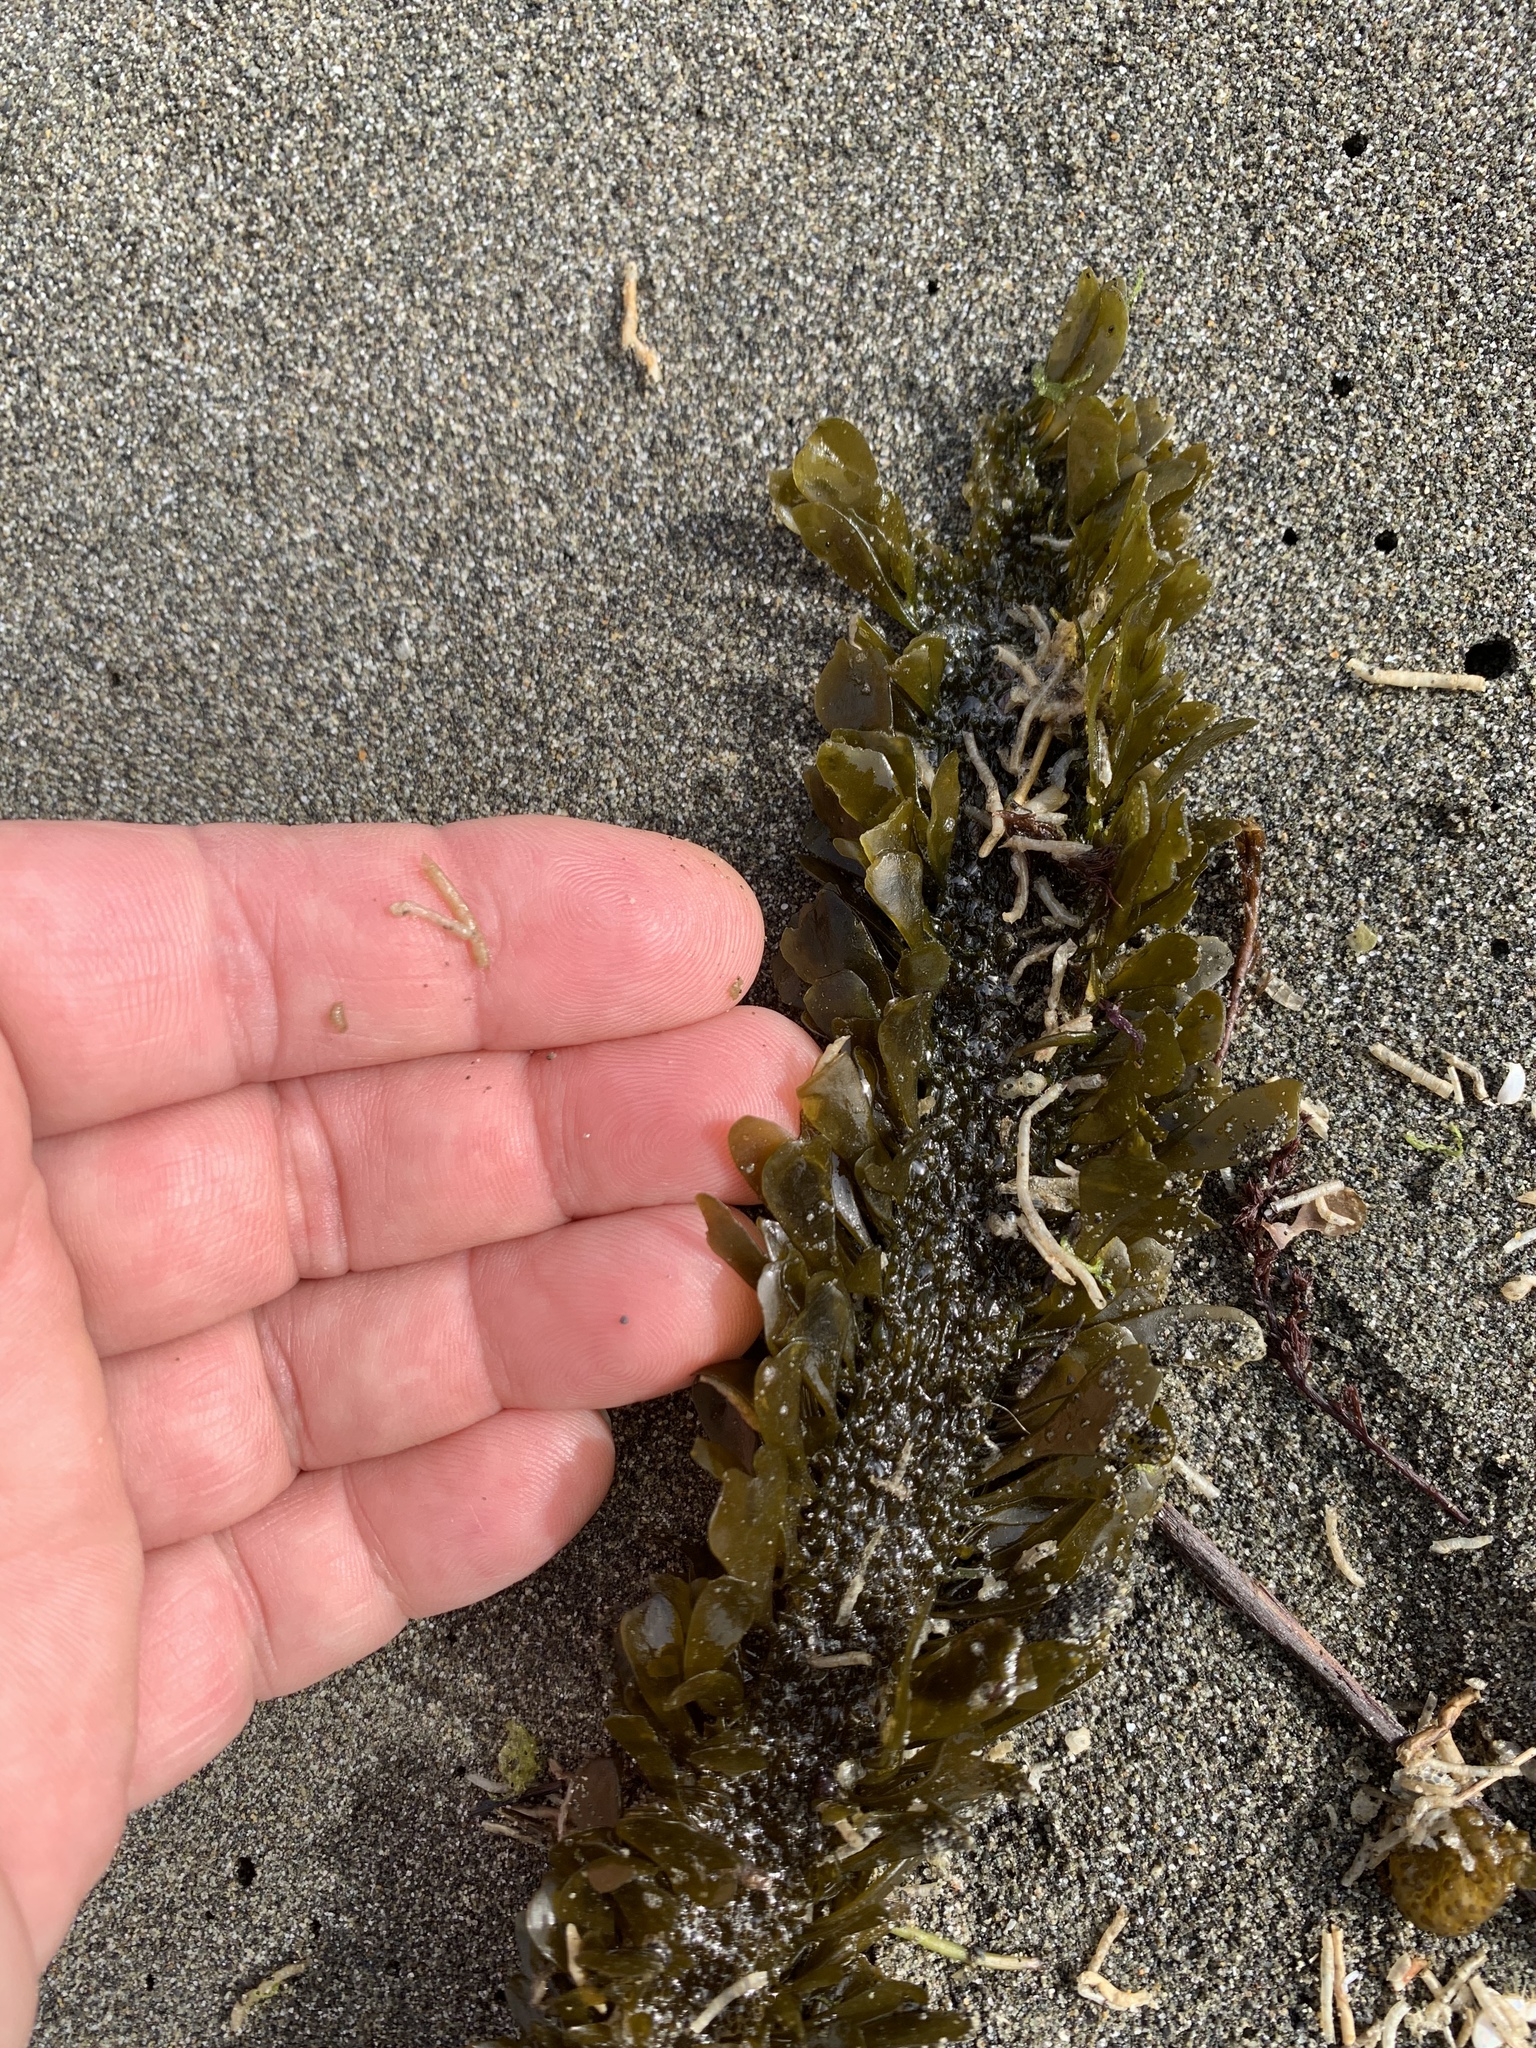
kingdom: Chromista
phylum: Ochrophyta
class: Phaeophyceae
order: Laminariales
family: Lessoniaceae
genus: Egregia
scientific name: Egregia menziesii
